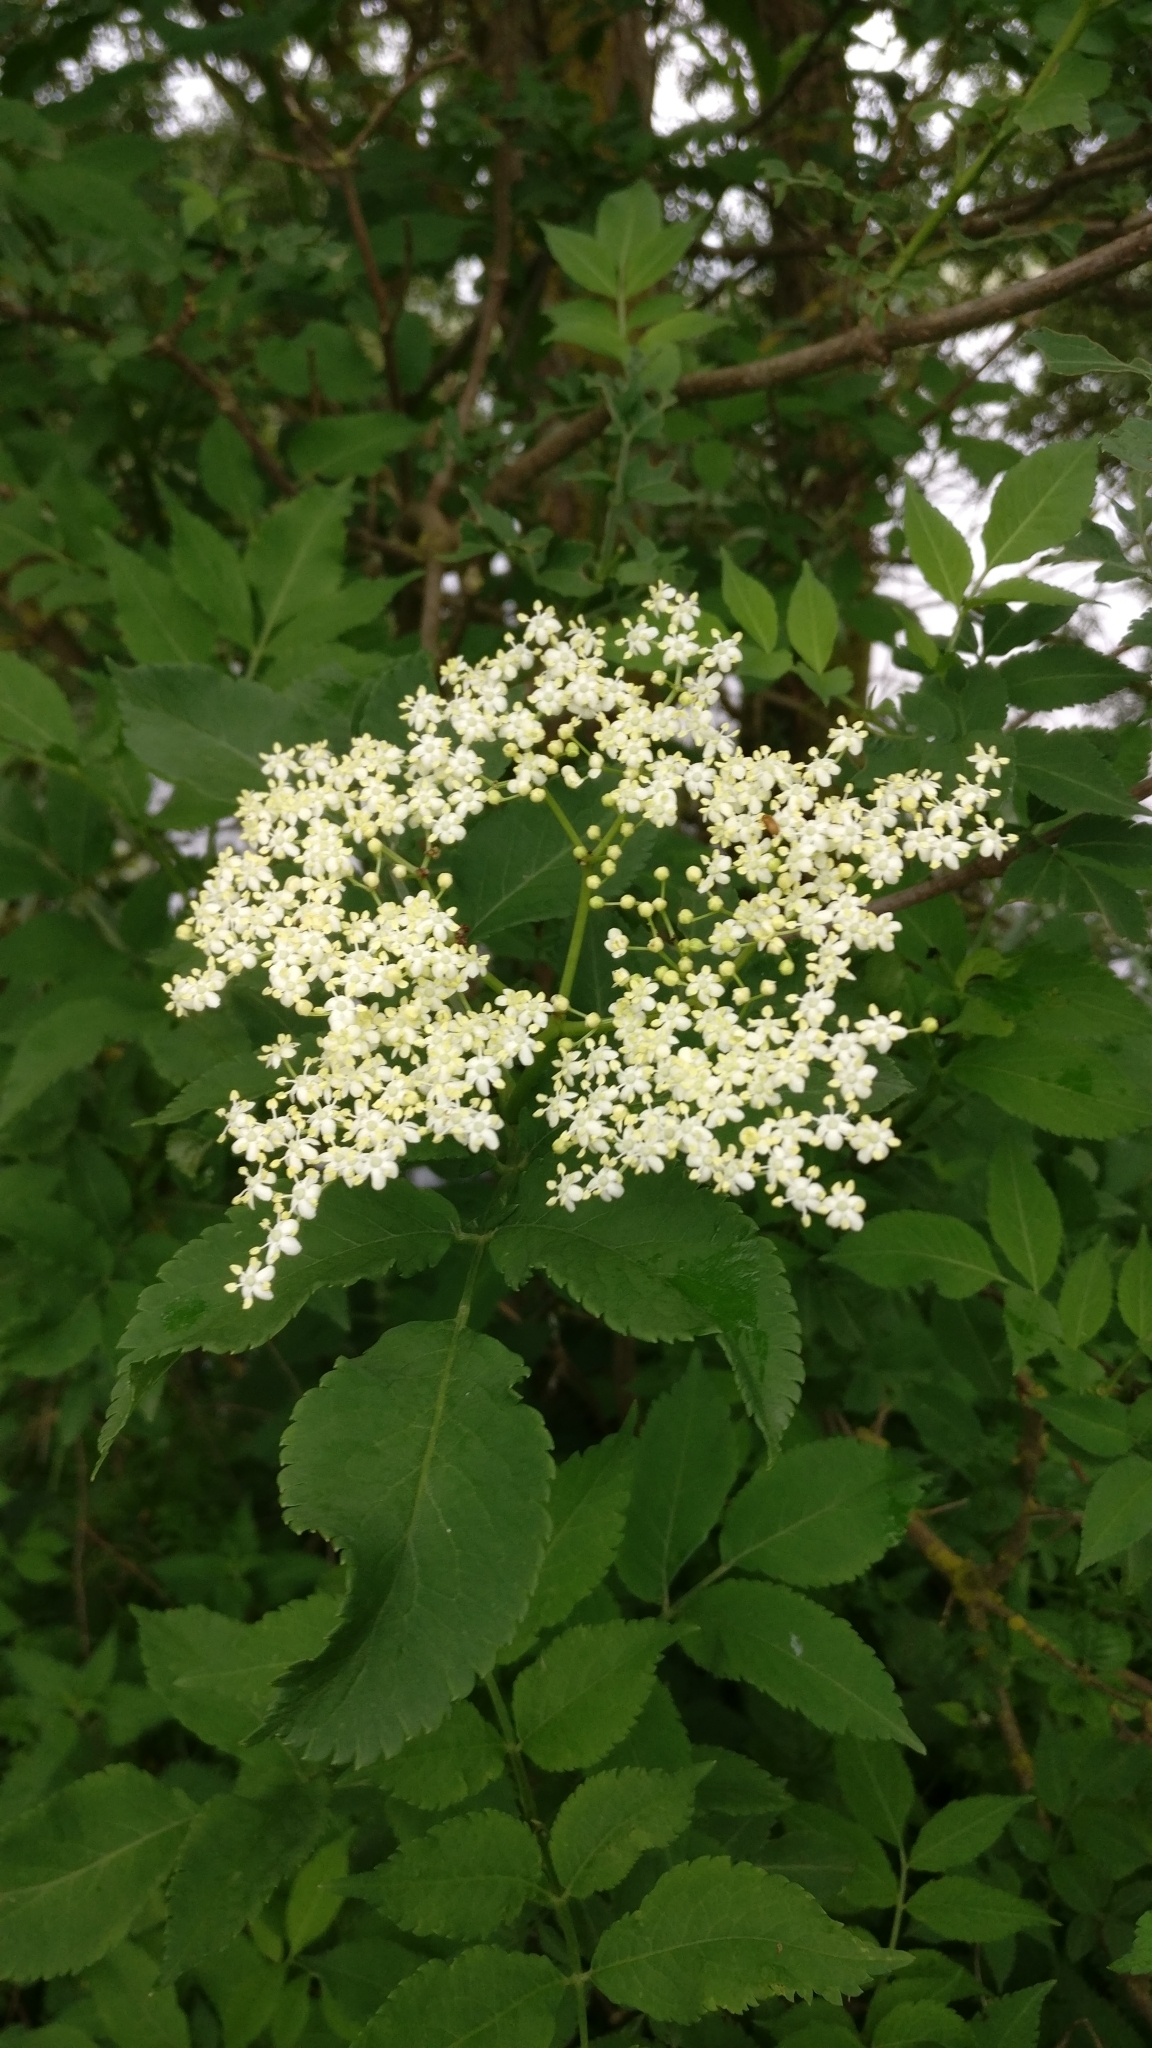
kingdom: Plantae
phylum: Tracheophyta
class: Magnoliopsida
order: Dipsacales
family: Viburnaceae
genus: Sambucus
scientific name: Sambucus nigra
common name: Elder
